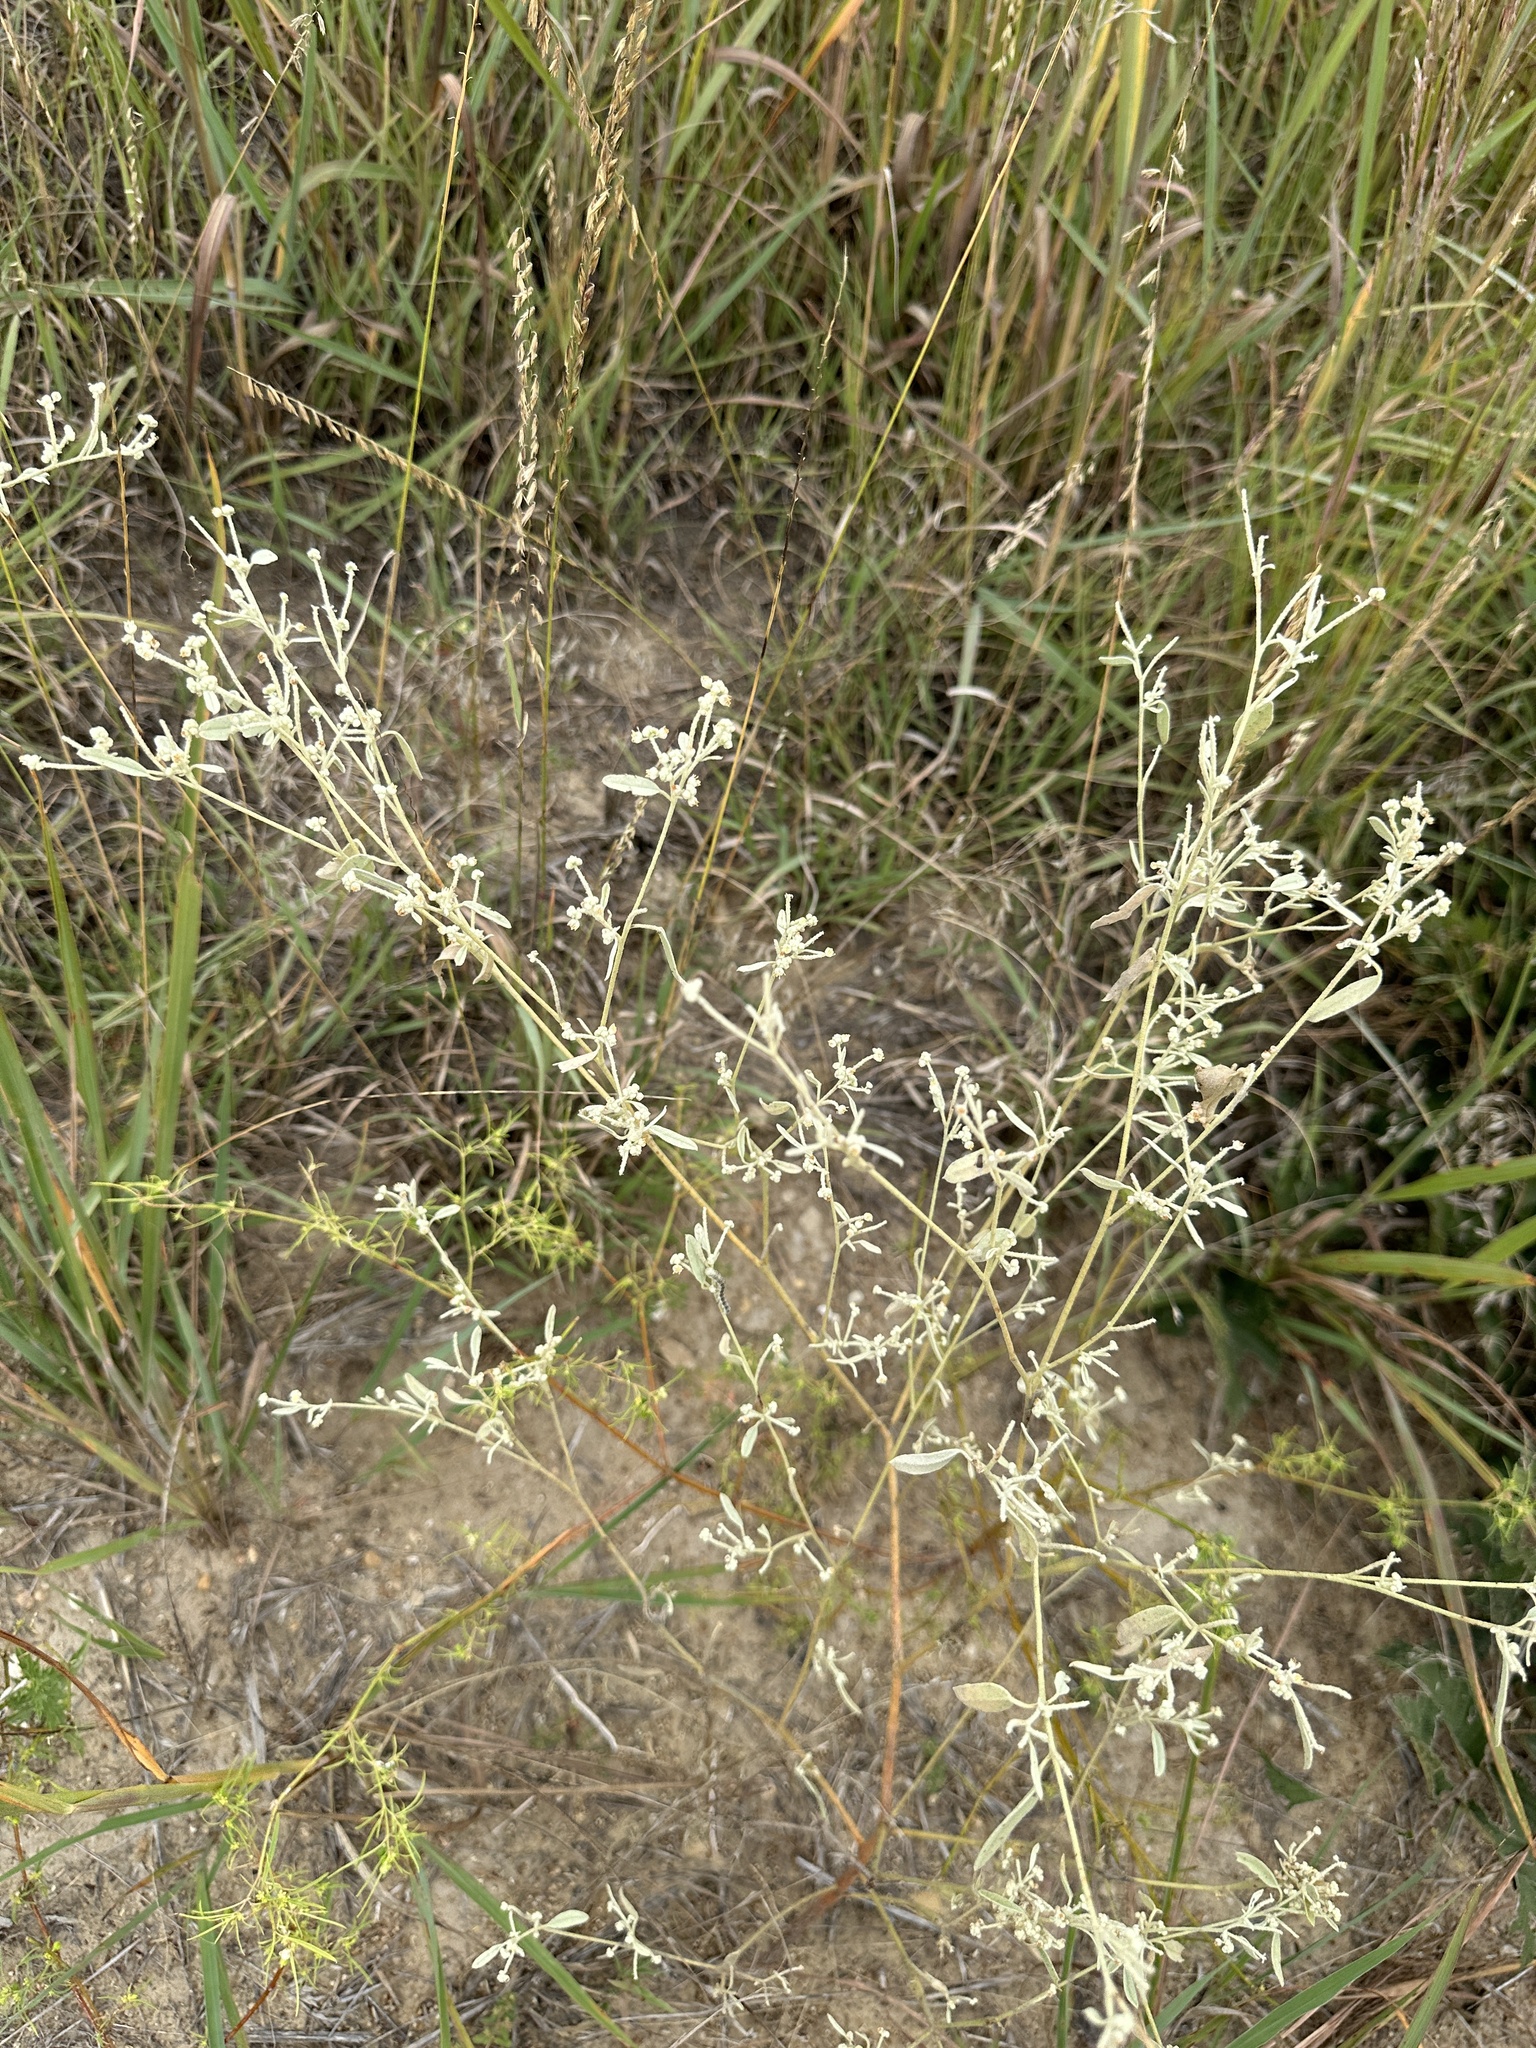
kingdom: Plantae
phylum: Tracheophyta
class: Magnoliopsida
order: Malpighiales
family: Euphorbiaceae
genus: Croton
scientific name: Croton texensis
